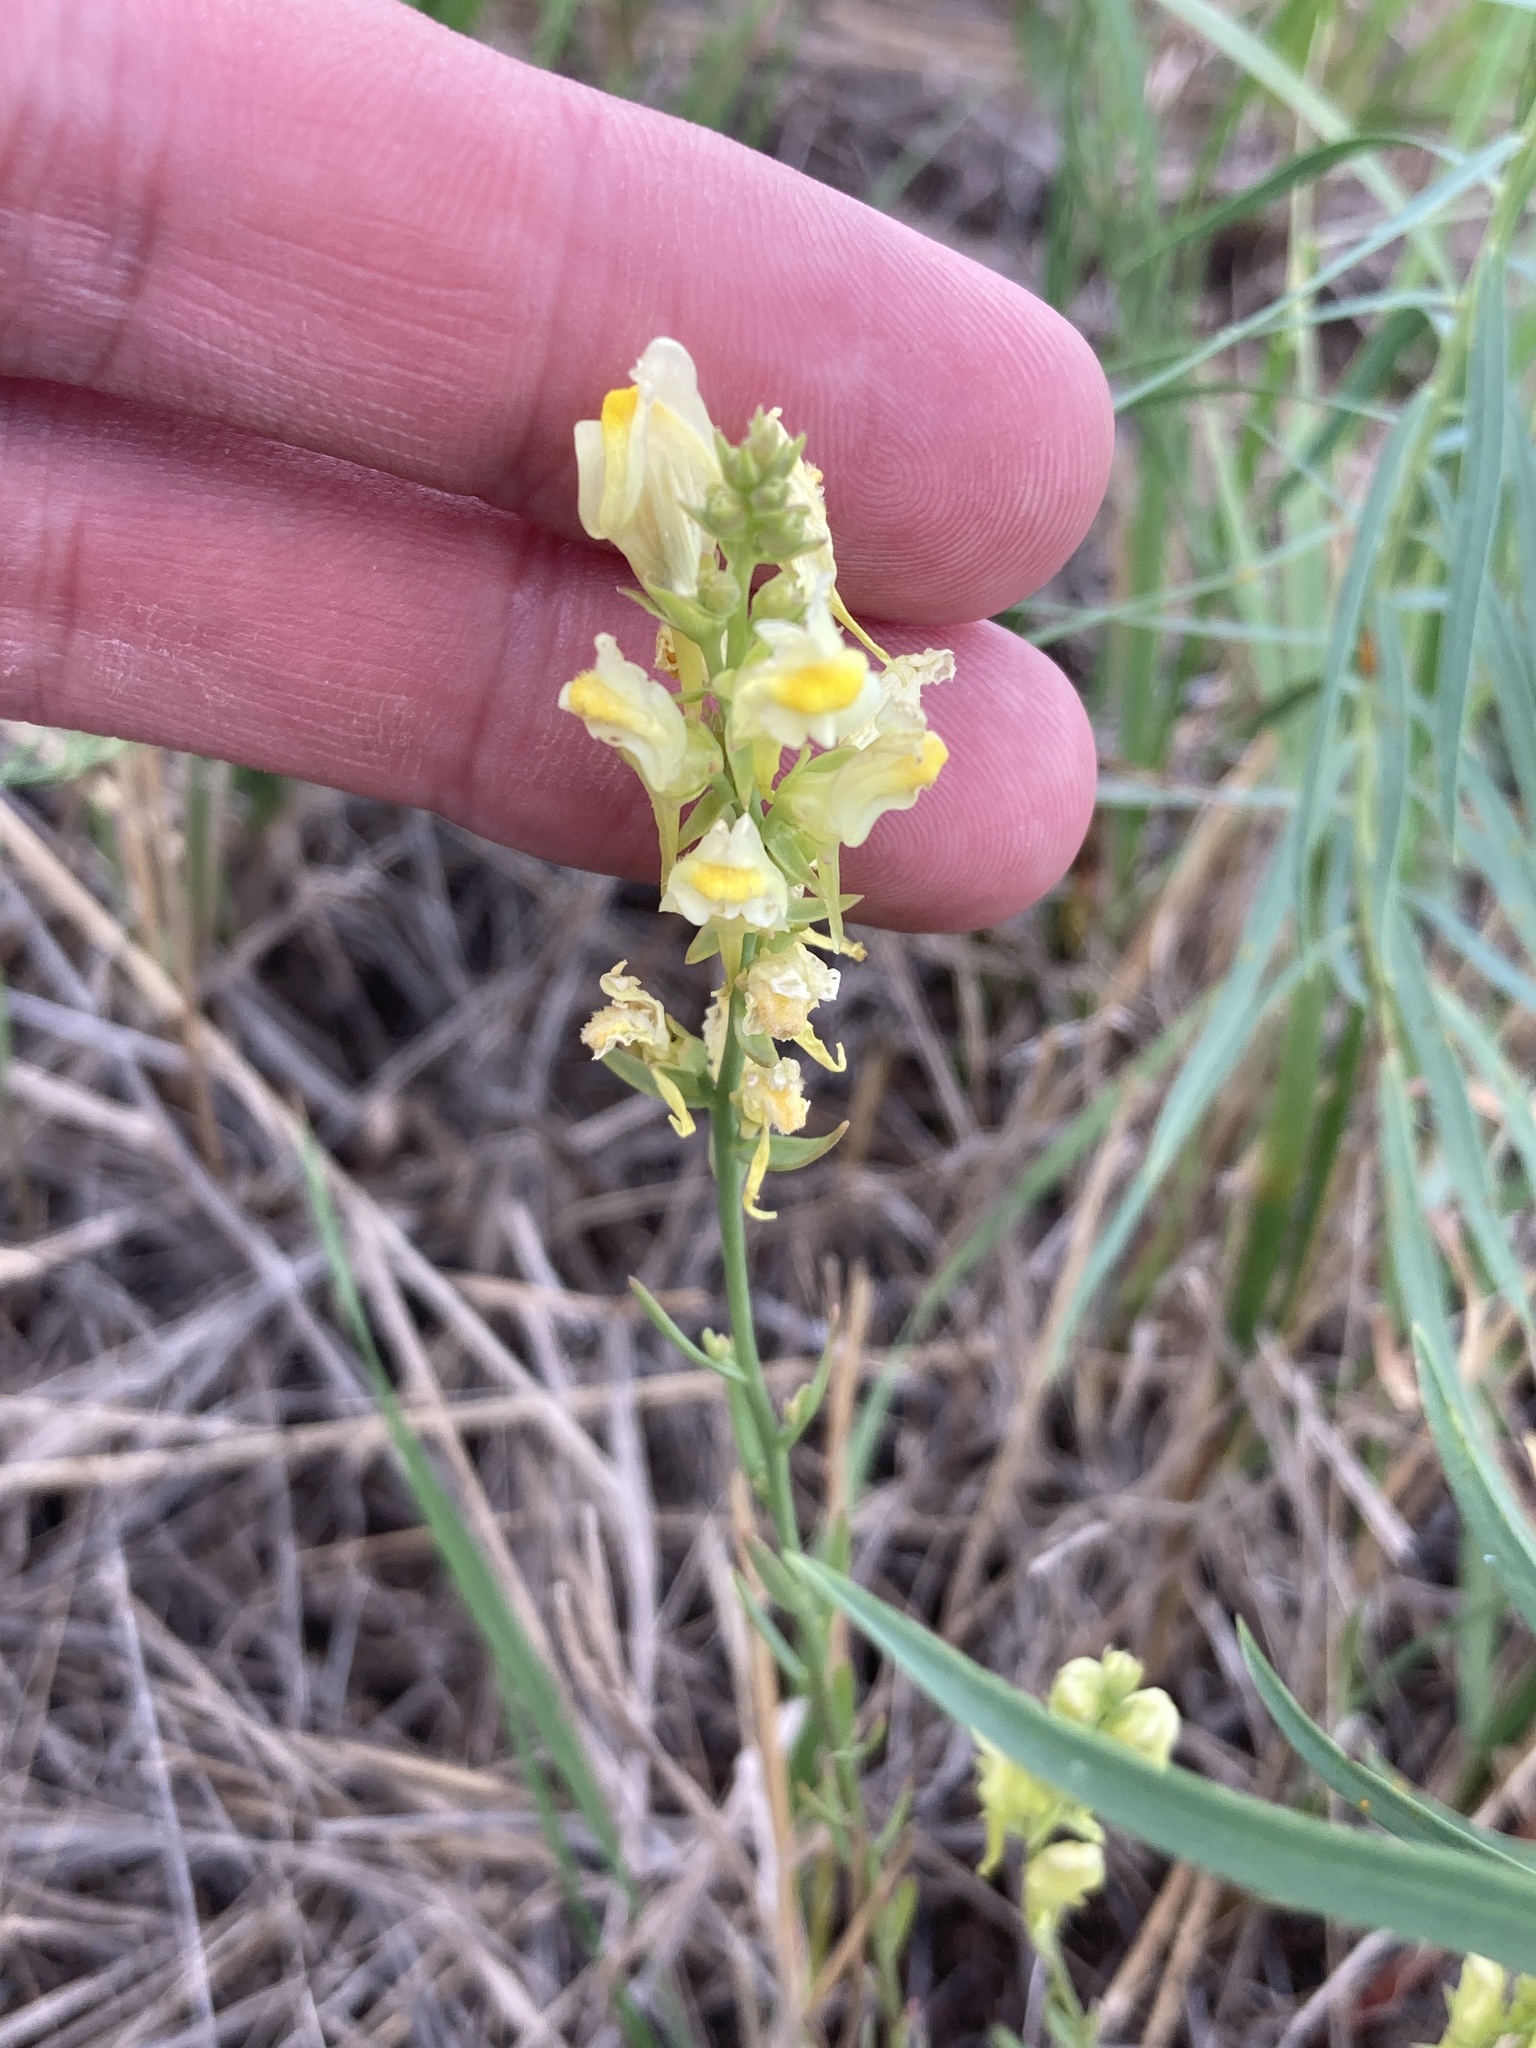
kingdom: Plantae
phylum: Tracheophyta
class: Magnoliopsida
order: Lamiales
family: Plantaginaceae
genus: Linaria
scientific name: Linaria vulgaris
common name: Butter and eggs
